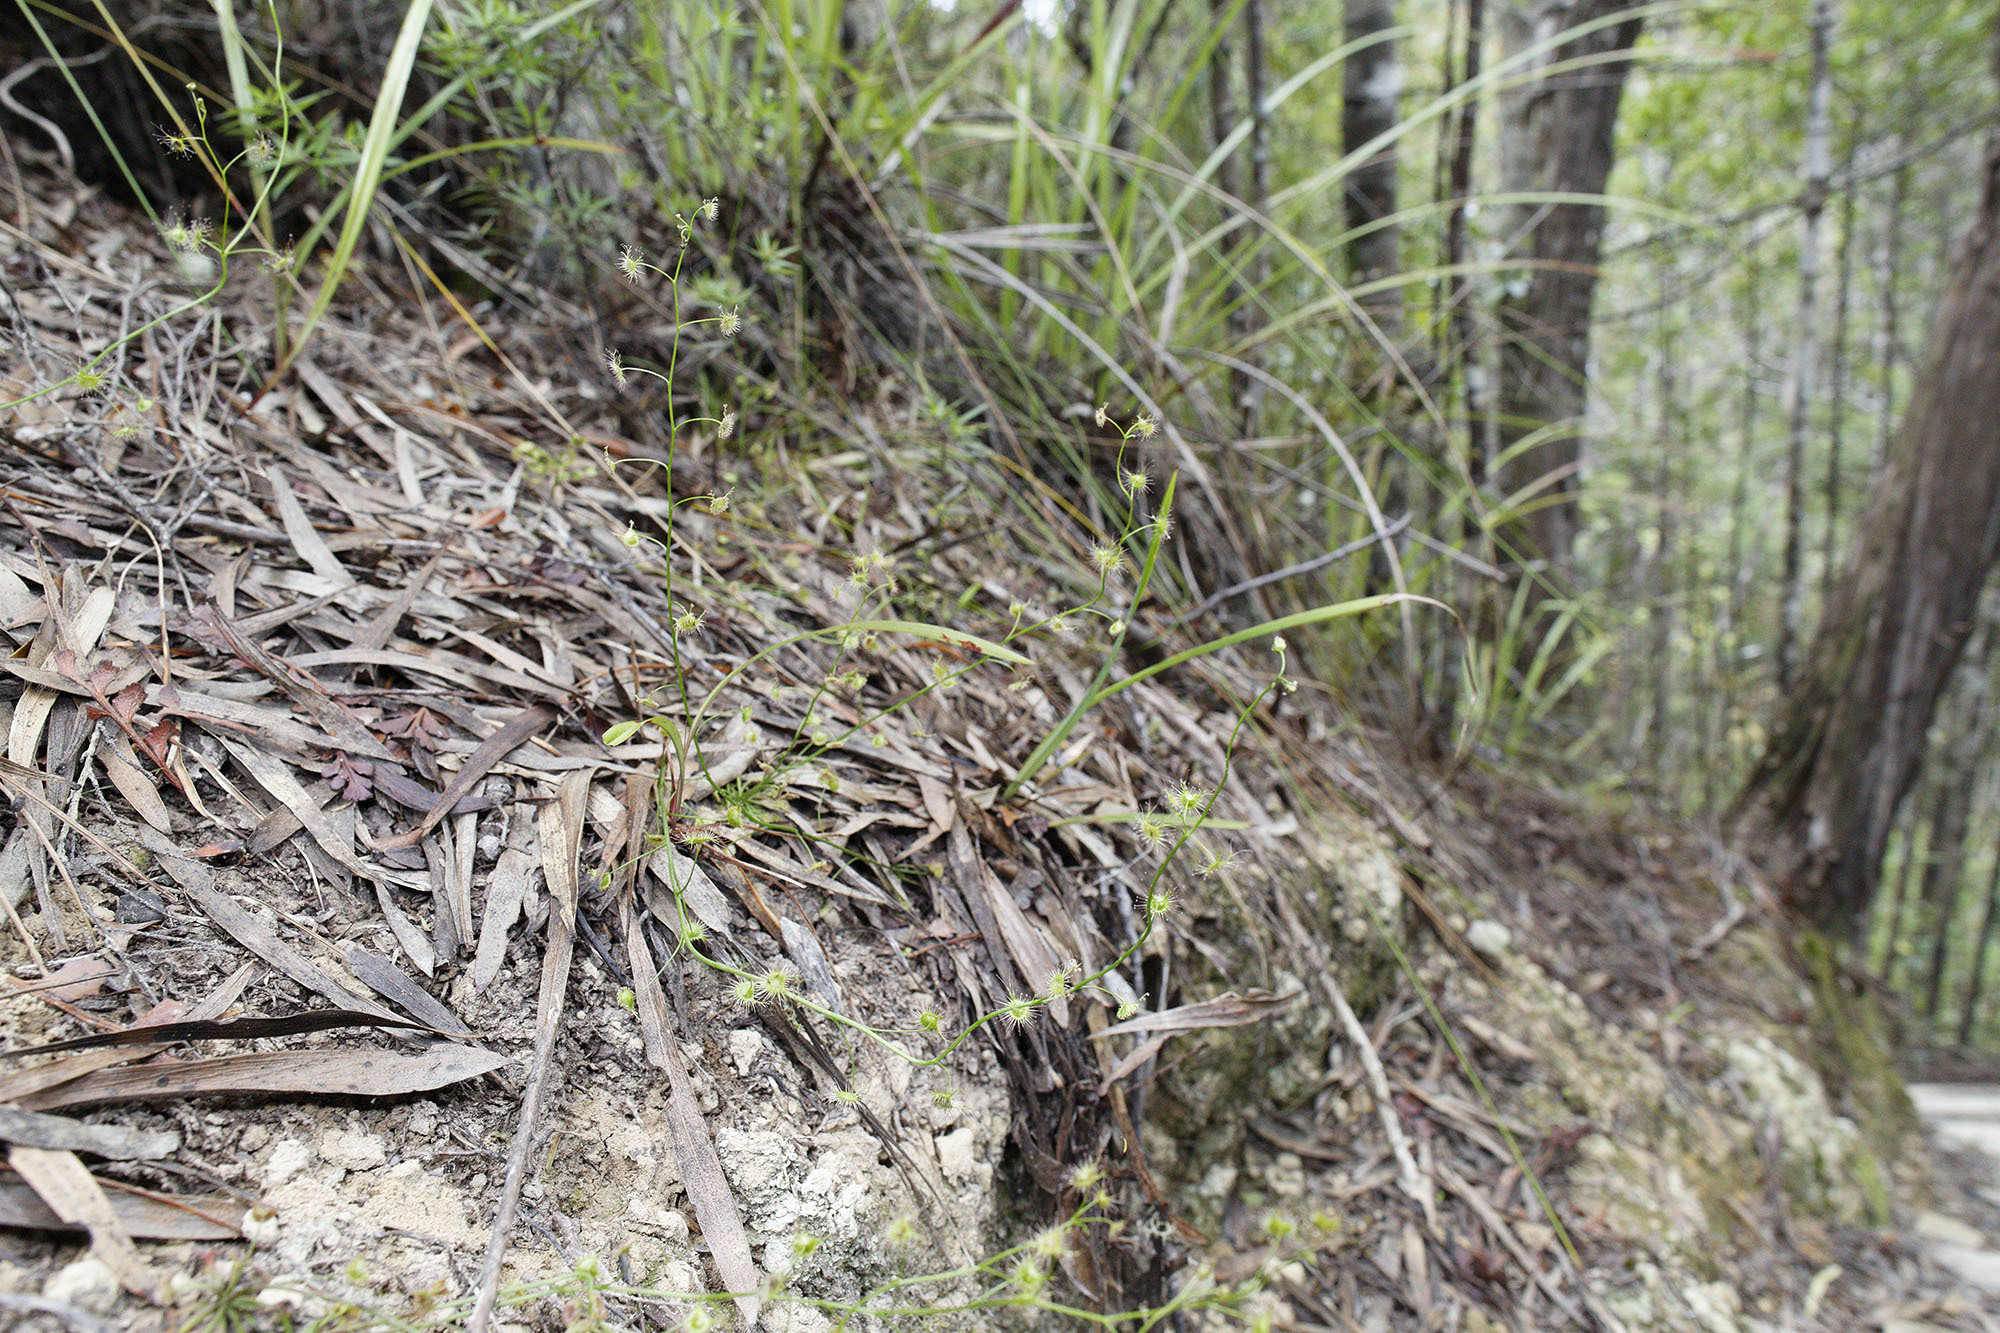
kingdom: Plantae
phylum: Tracheophyta
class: Magnoliopsida
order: Caryophyllales
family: Droseraceae
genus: Drosera
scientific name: Drosera peltata
